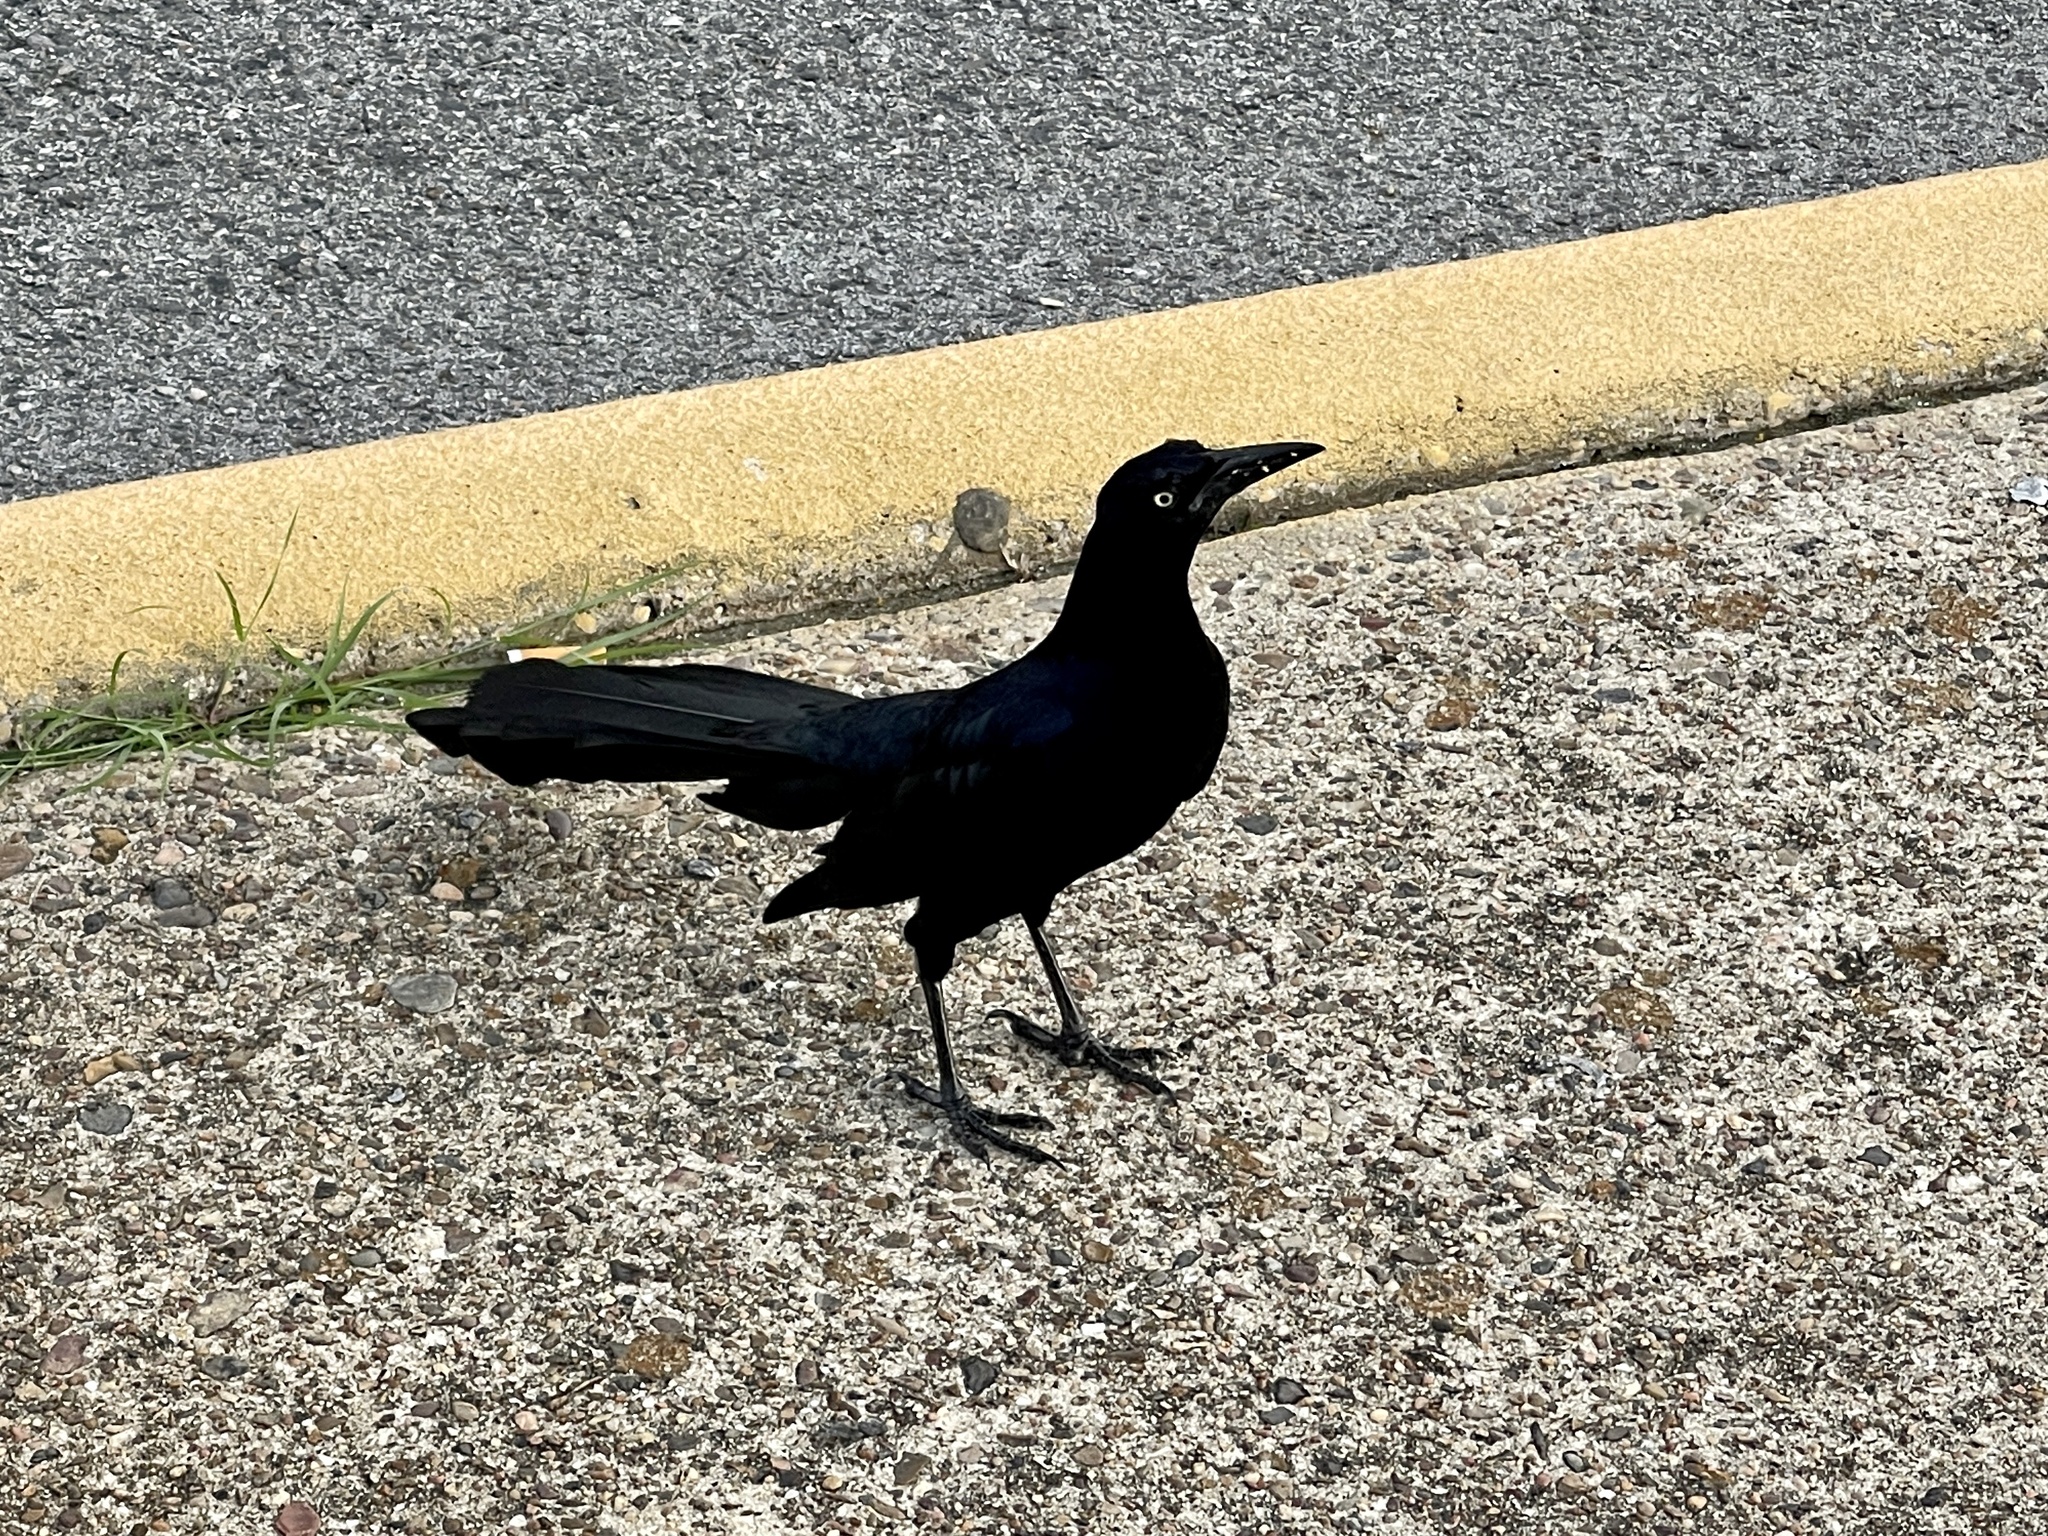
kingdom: Animalia
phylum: Chordata
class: Aves
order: Passeriformes
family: Icteridae
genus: Quiscalus
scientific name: Quiscalus mexicanus
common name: Great-tailed grackle
